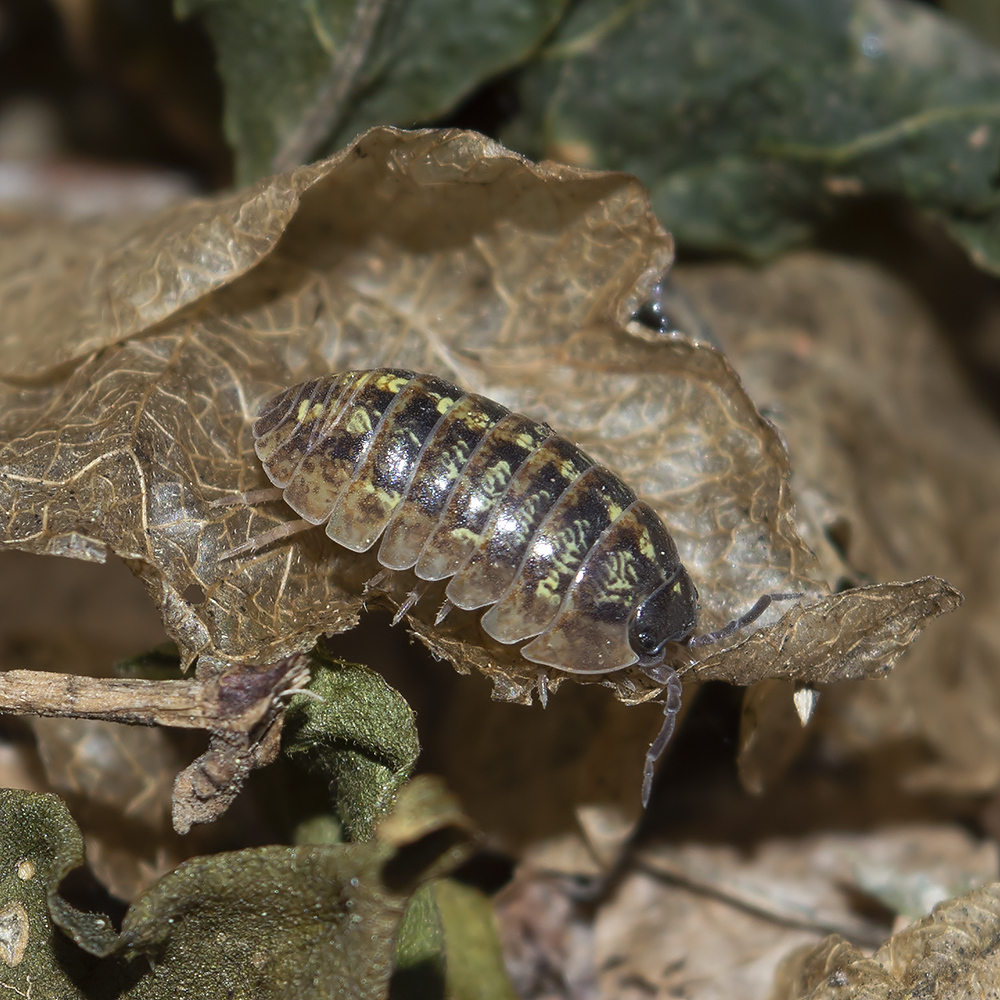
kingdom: Animalia
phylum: Arthropoda
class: Malacostraca
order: Isopoda
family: Armadillidiidae
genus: Armadillidium
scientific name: Armadillidium vulgare
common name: Common pill woodlouse
